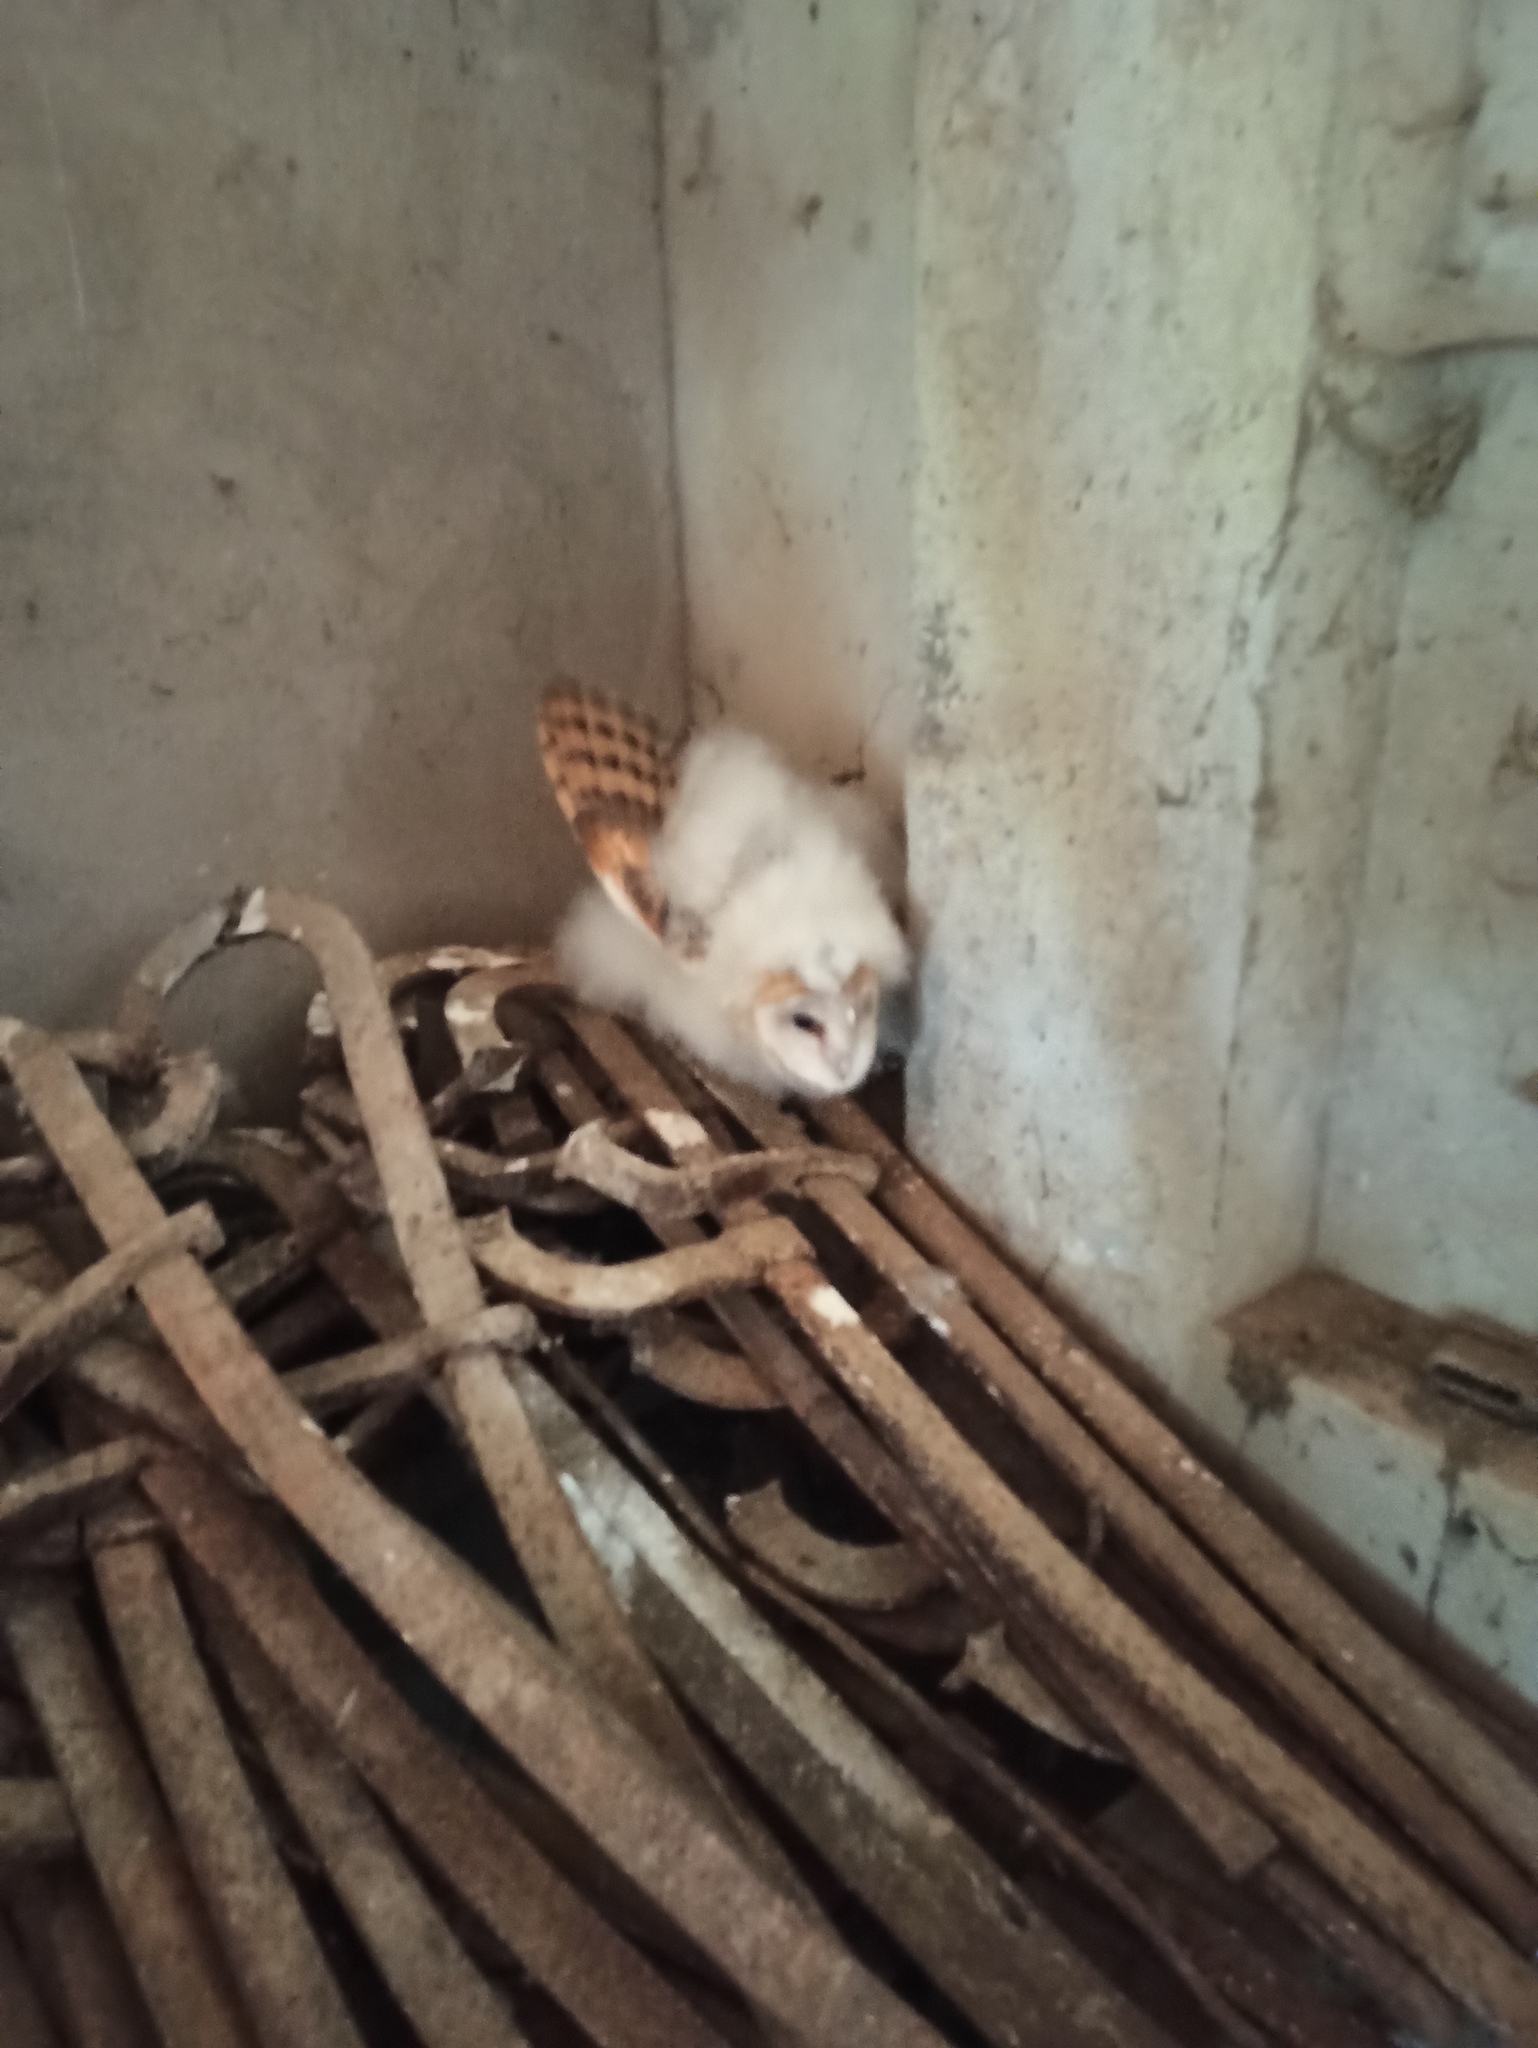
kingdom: Animalia
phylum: Chordata
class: Aves
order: Strigiformes
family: Tytonidae
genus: Tyto
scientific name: Tyto alba
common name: Barn owl
